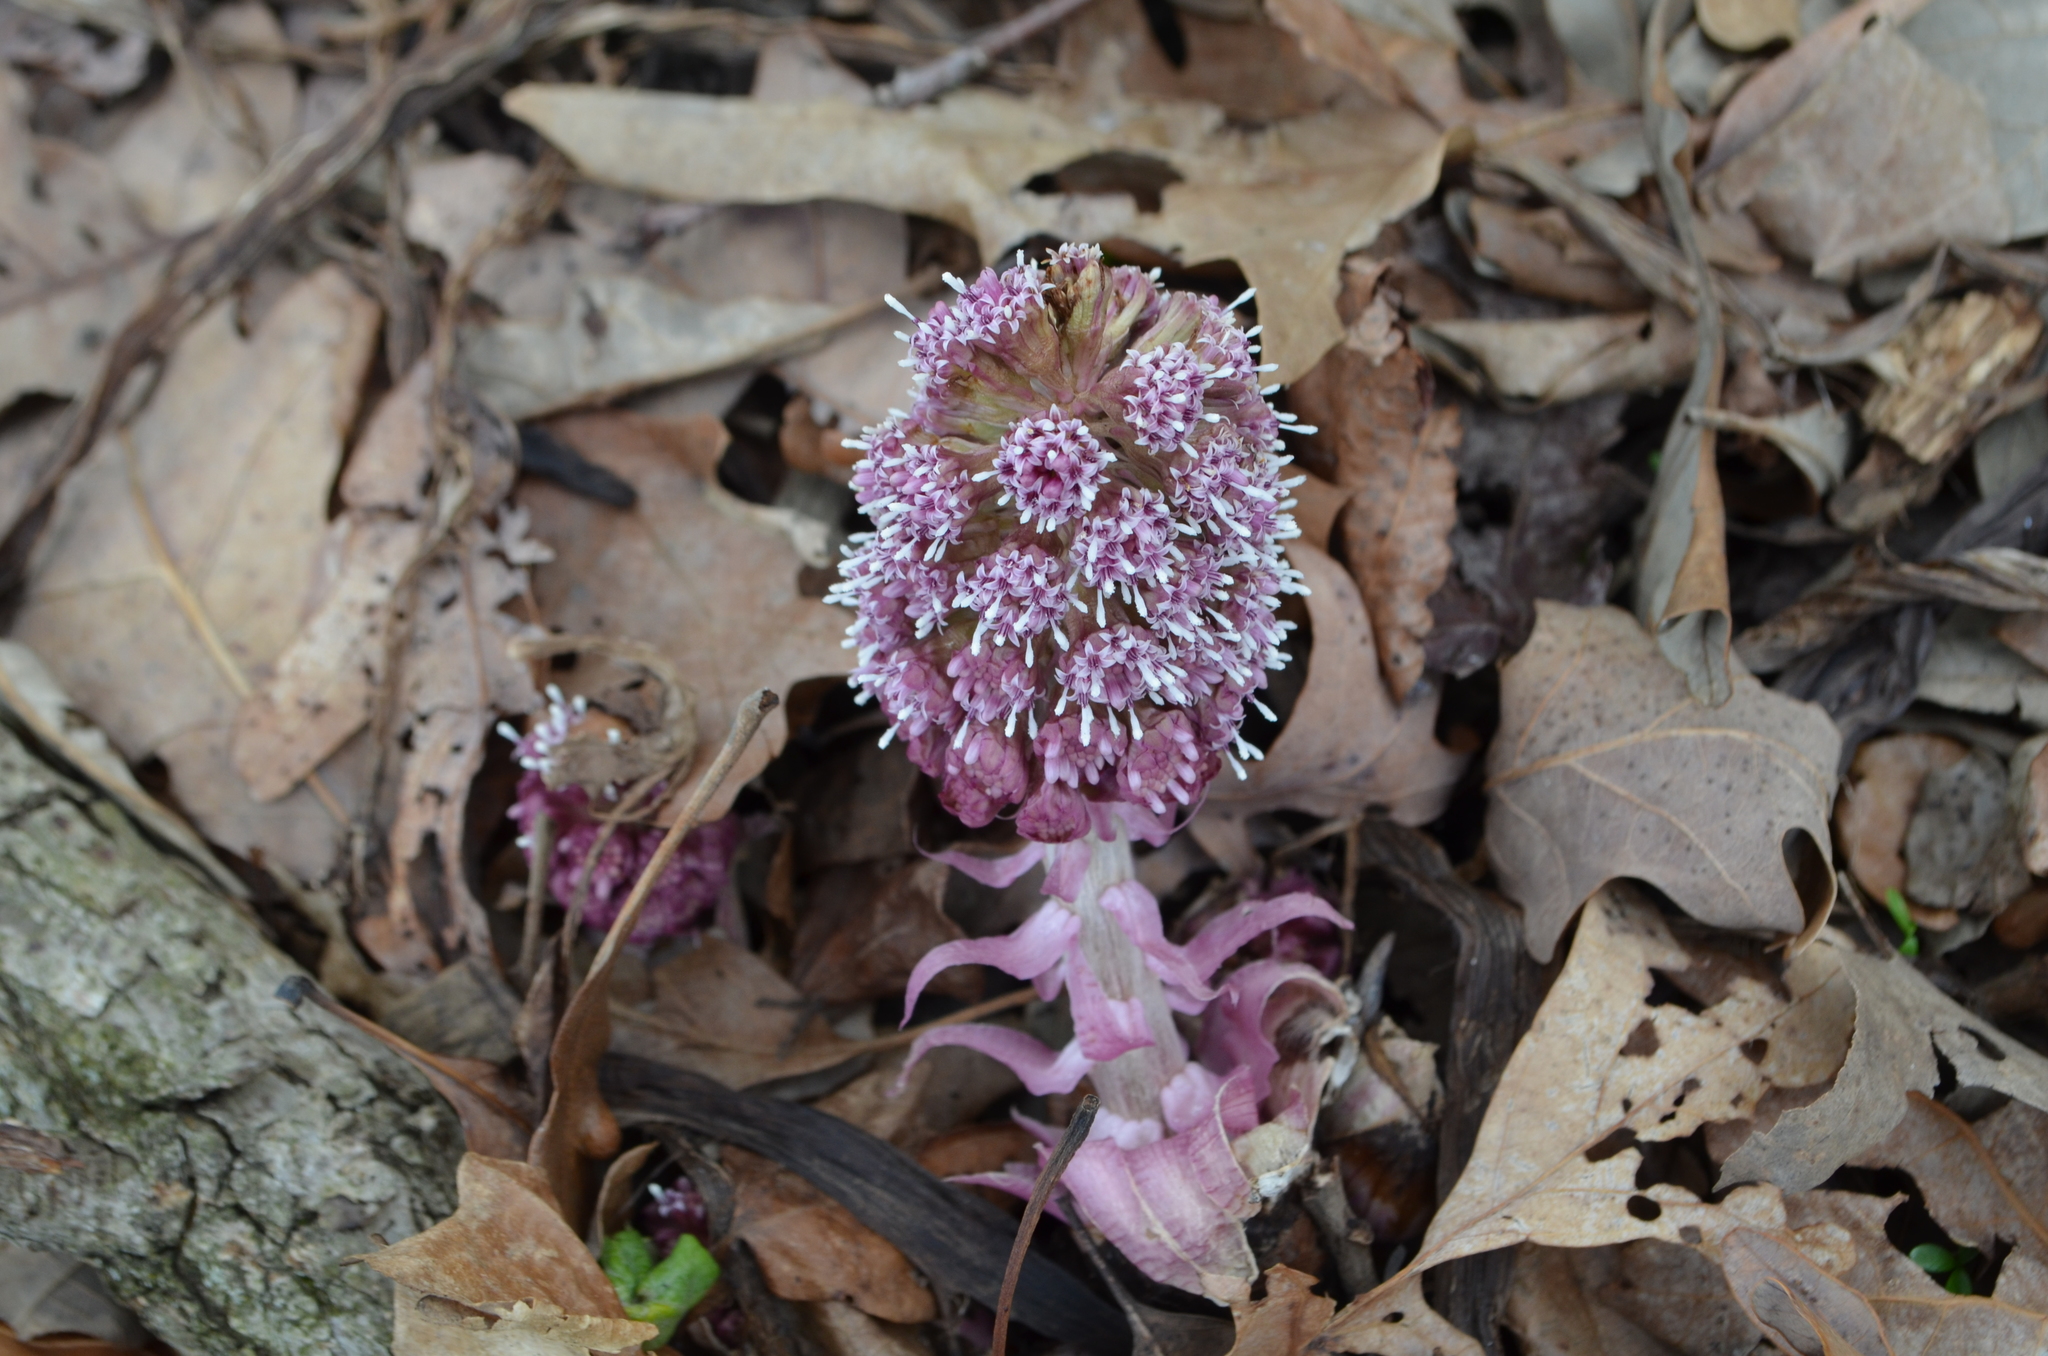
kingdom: Plantae
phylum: Tracheophyta
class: Magnoliopsida
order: Asterales
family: Asteraceae
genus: Petasites
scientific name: Petasites hybridus
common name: Butterbur
